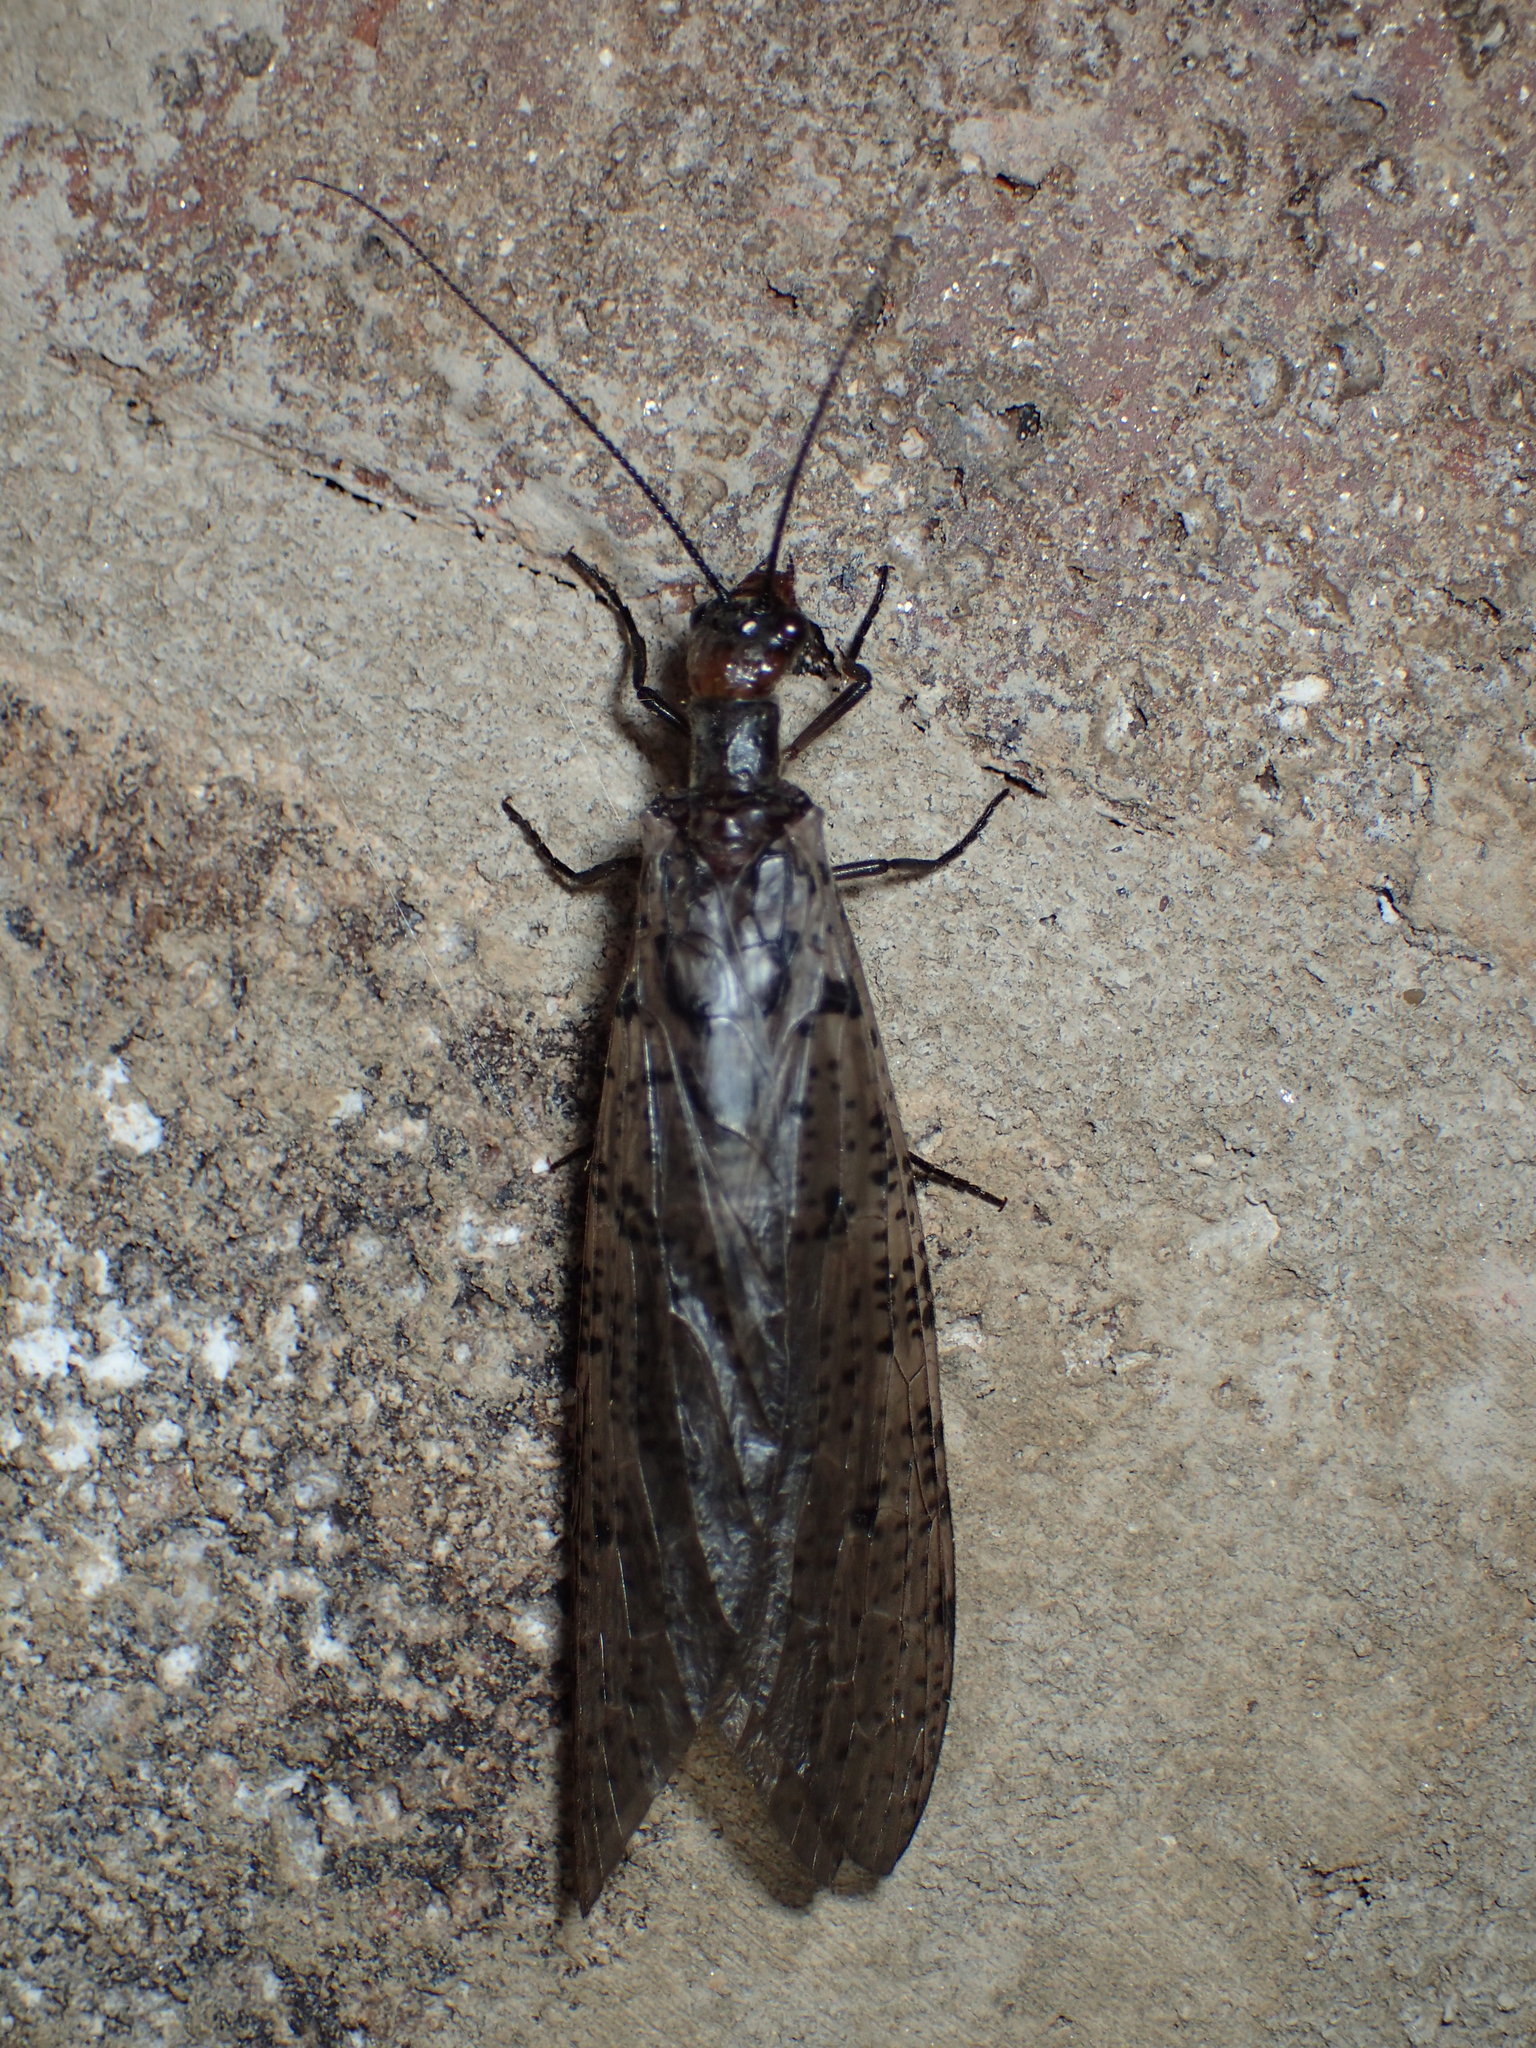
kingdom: Animalia
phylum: Arthropoda
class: Insecta
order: Megaloptera
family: Corydalidae
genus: Neohermes
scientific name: Neohermes concolor
